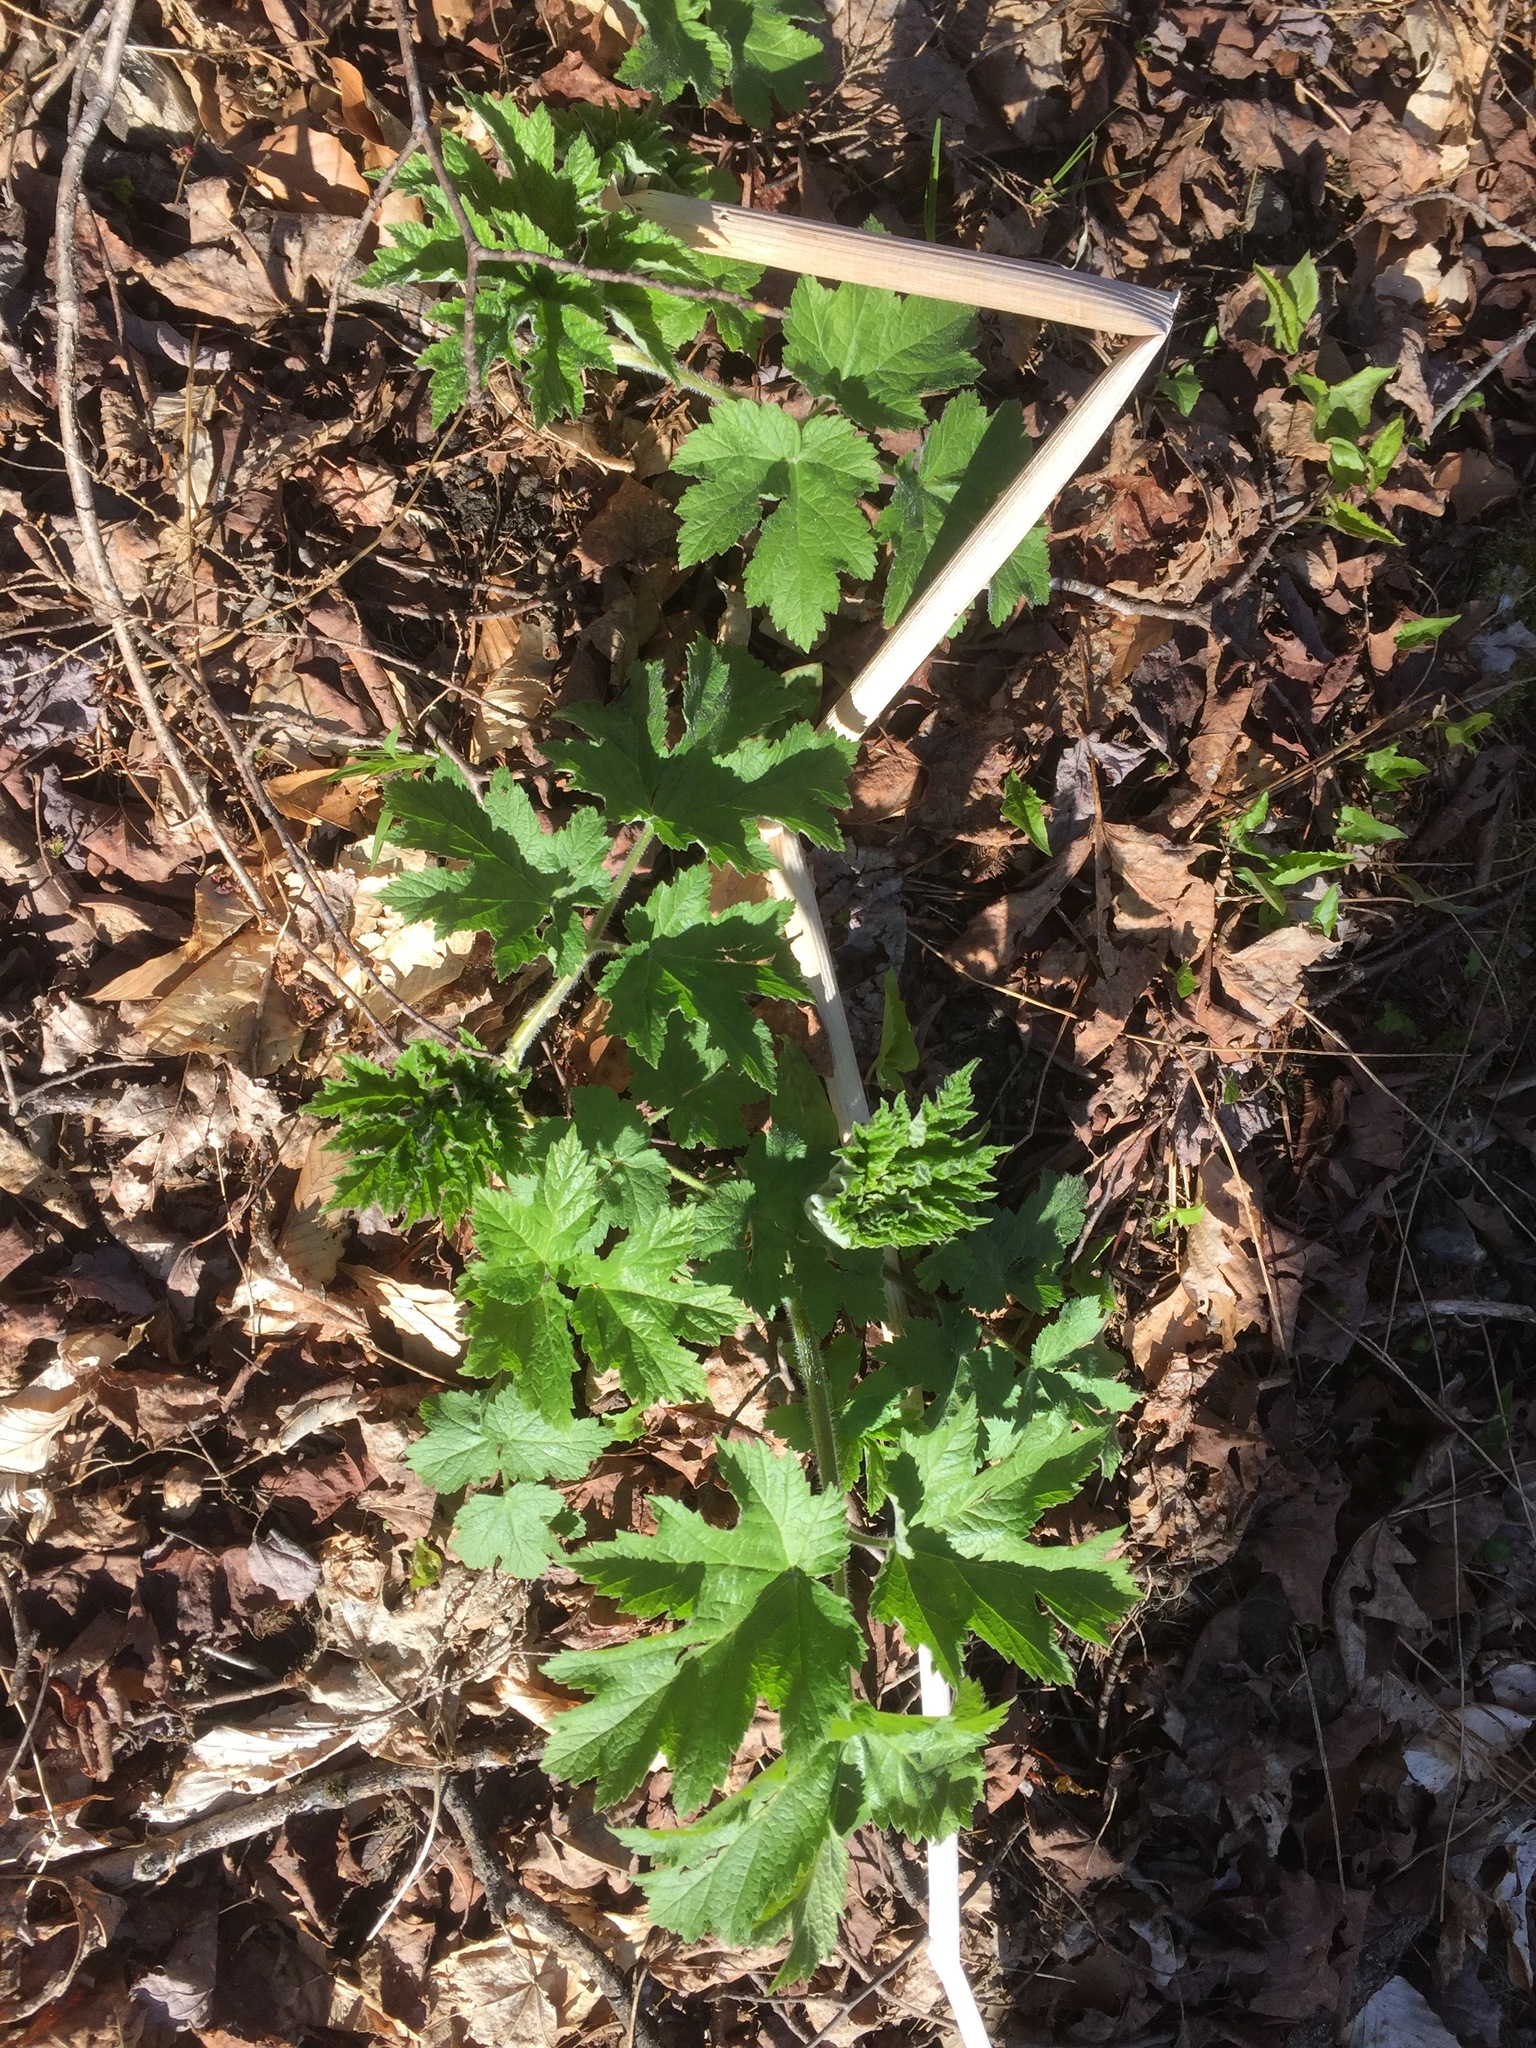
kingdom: Plantae
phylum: Tracheophyta
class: Magnoliopsida
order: Apiales
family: Apiaceae
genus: Heracleum
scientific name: Heracleum maximum
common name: American cow parsnip
